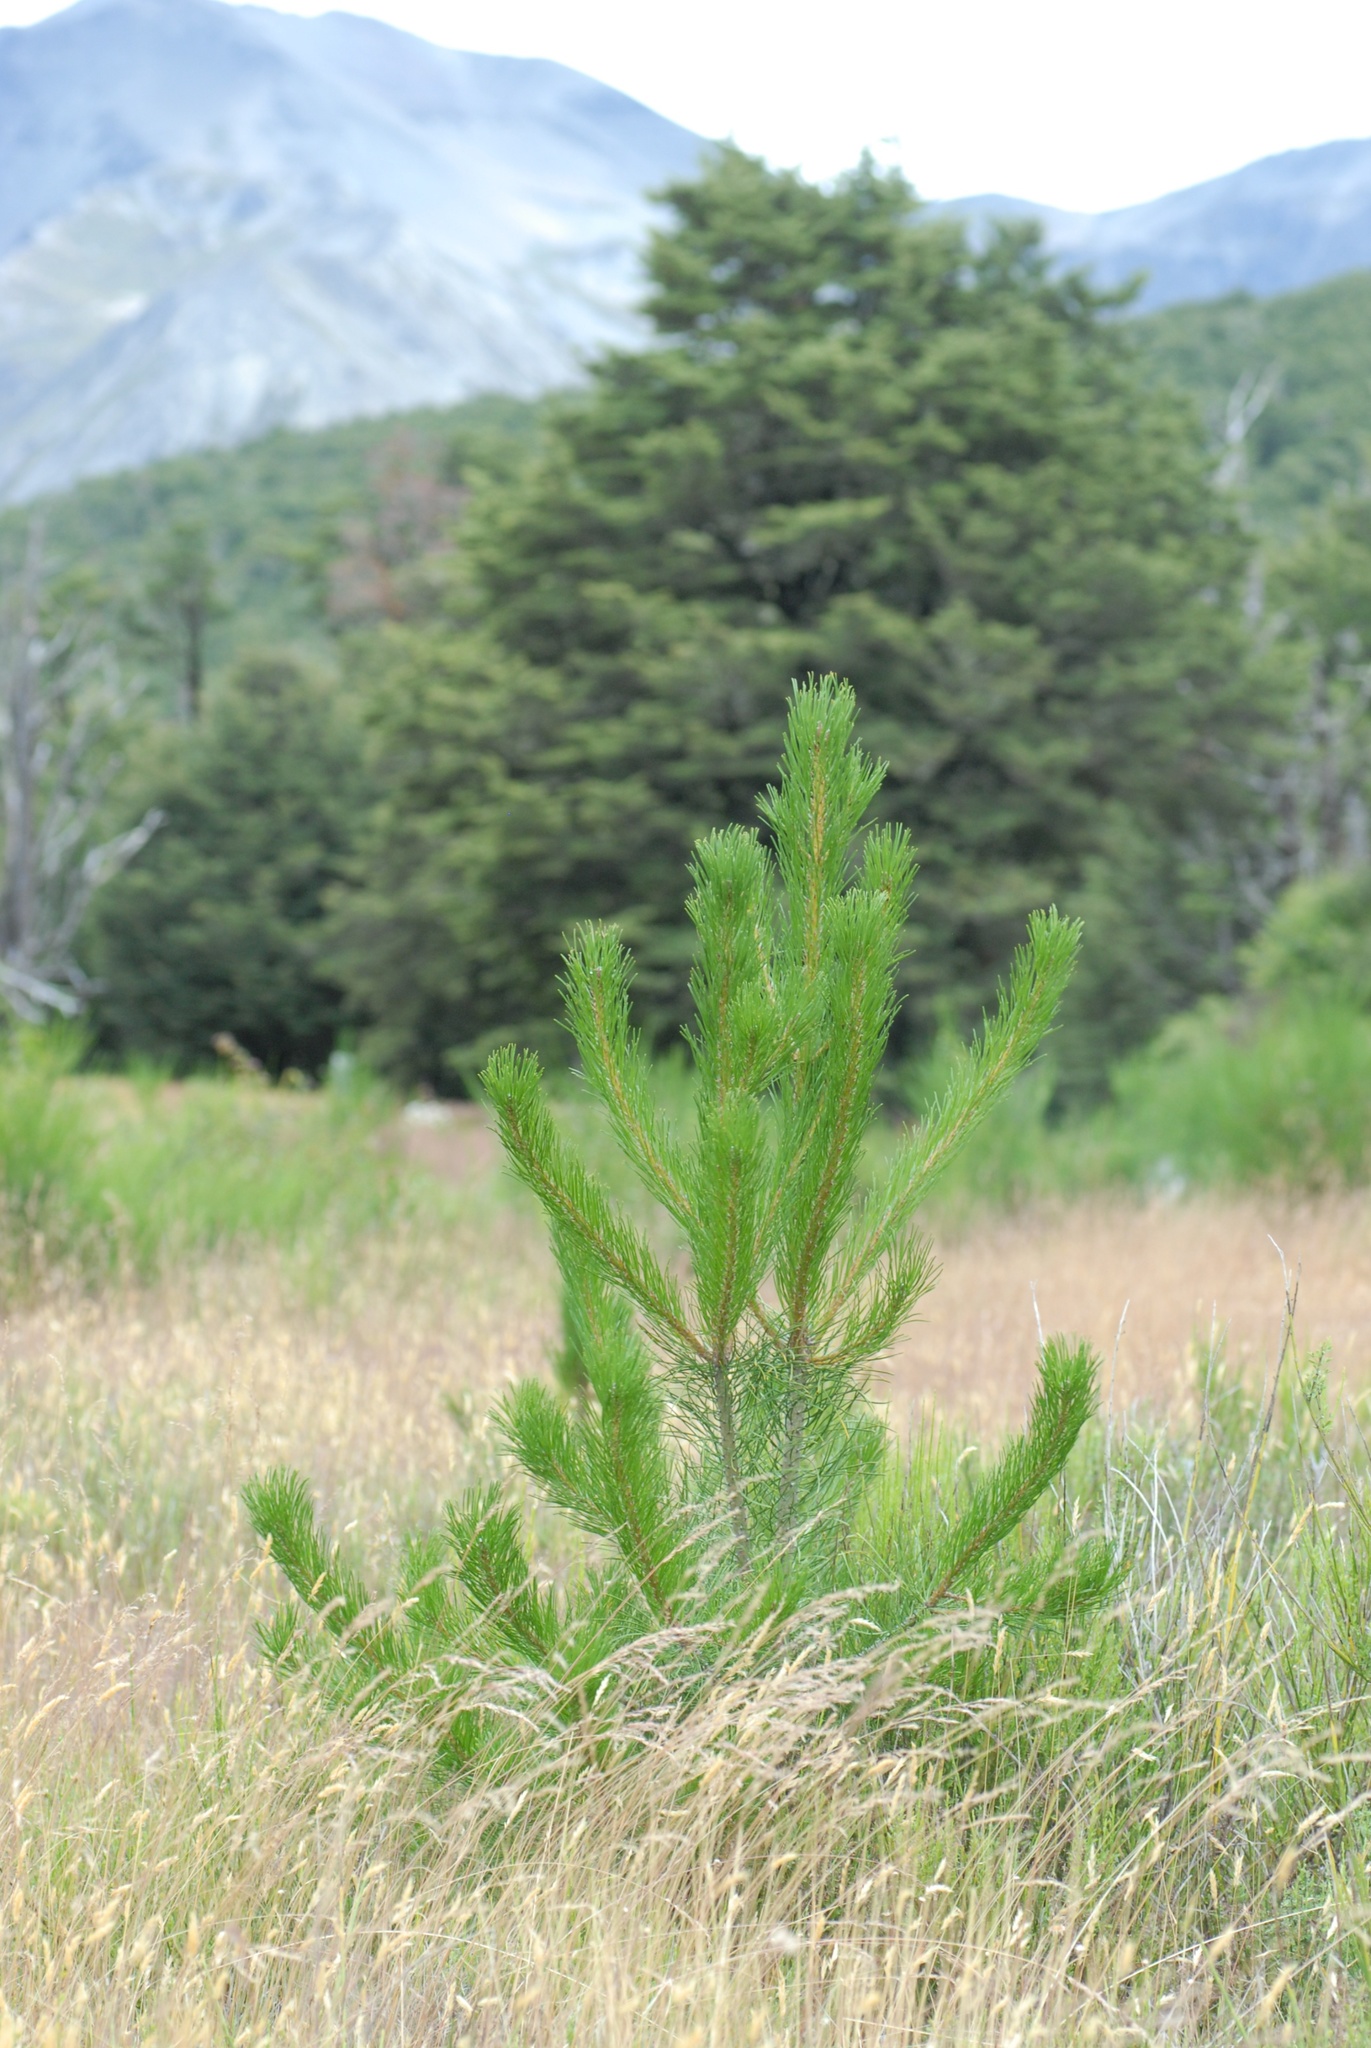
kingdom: Plantae
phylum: Tracheophyta
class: Pinopsida
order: Pinales
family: Pinaceae
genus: Pinus
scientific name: Pinus nigra
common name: Austrian pine
